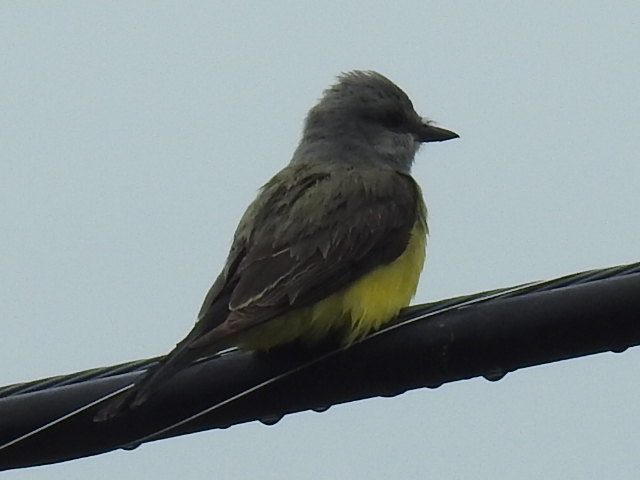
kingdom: Animalia
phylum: Chordata
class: Aves
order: Passeriformes
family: Tyrannidae
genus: Tyrannus
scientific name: Tyrannus verticalis
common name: Western kingbird
